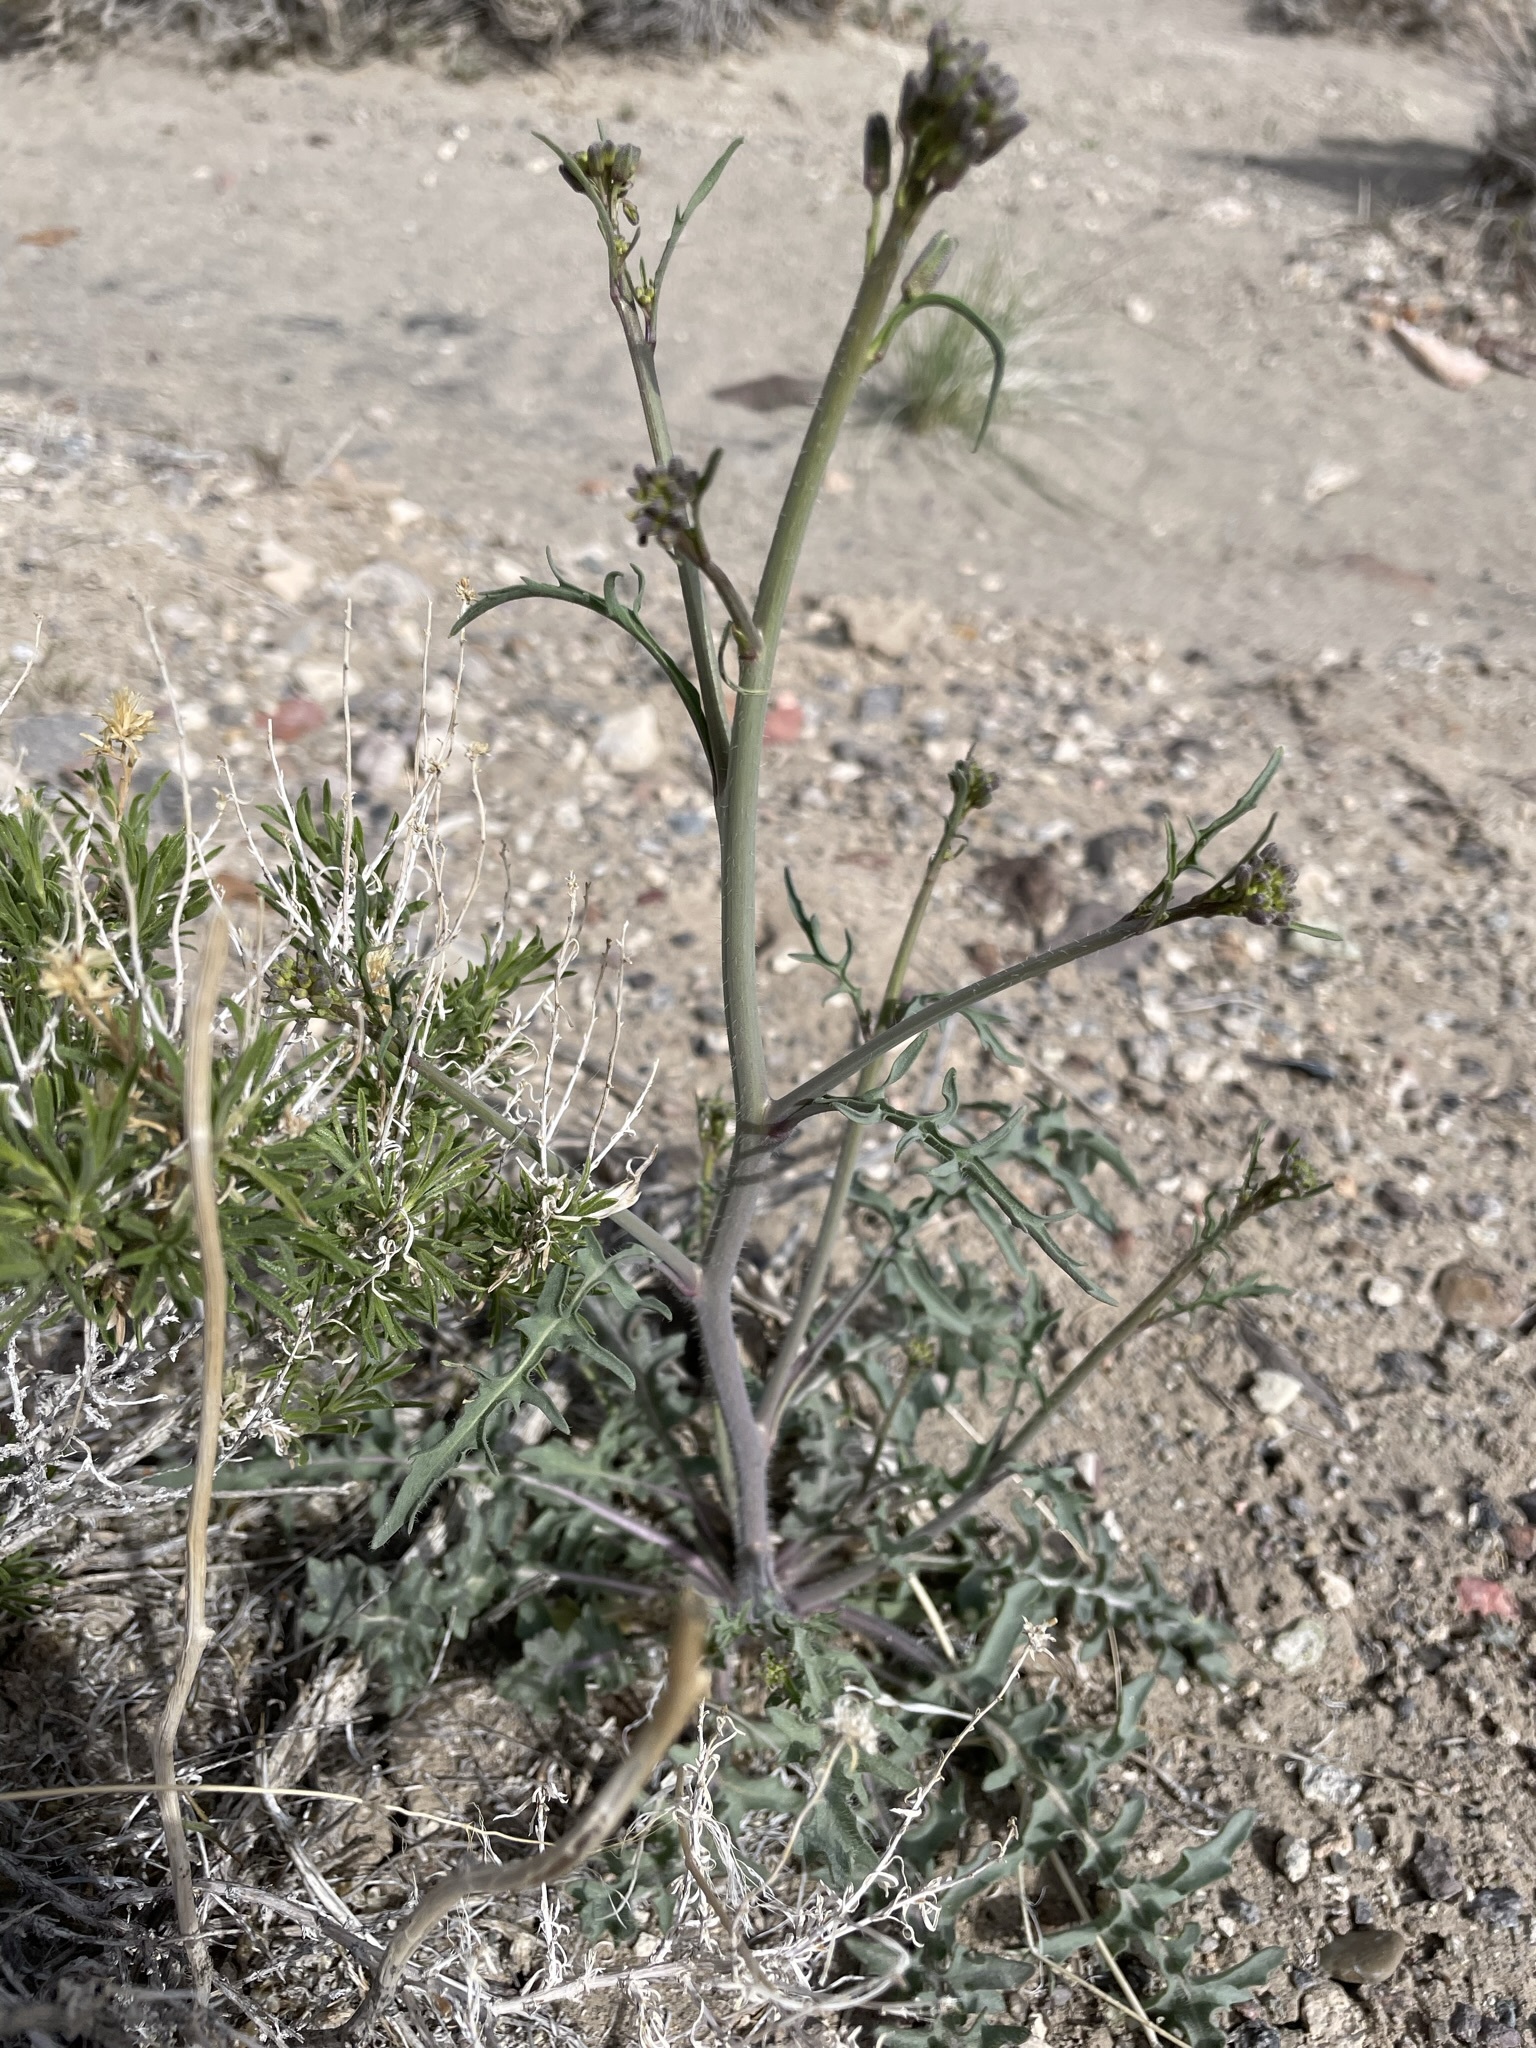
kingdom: Plantae
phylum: Tracheophyta
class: Magnoliopsida
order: Brassicales
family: Brassicaceae
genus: Streptanthus
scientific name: Streptanthus pilosus
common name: Chocolate drops
